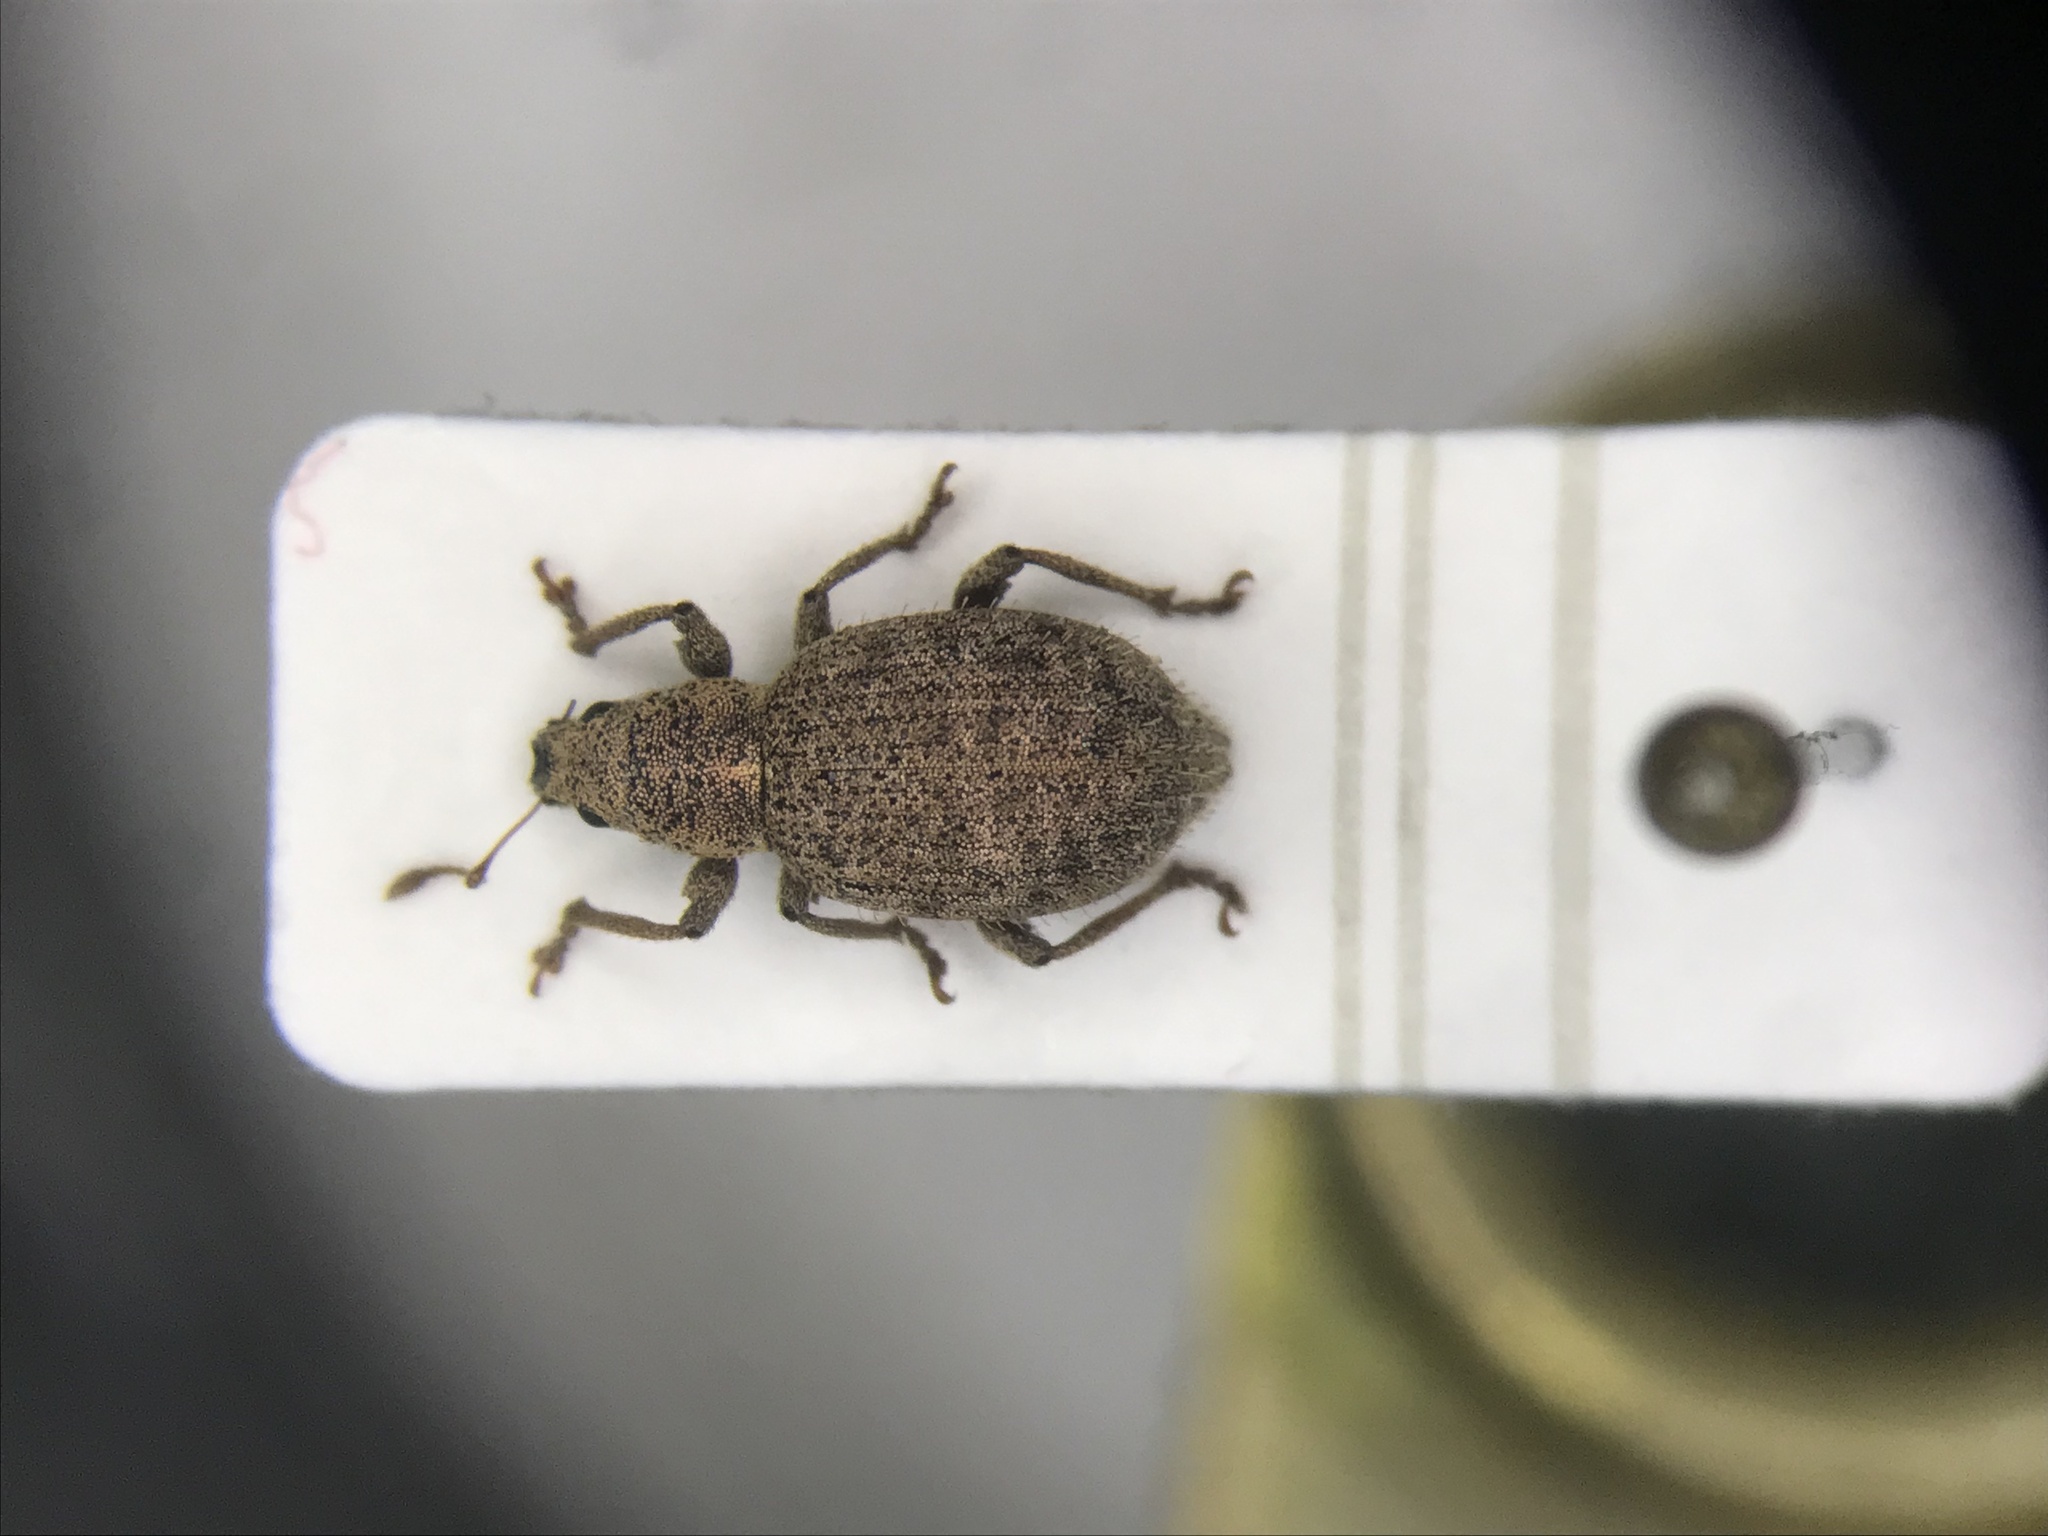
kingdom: Animalia
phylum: Arthropoda
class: Insecta
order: Coleoptera
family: Curculionidae
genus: Sciaphilus
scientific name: Sciaphilus asperatus
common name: Weevil
